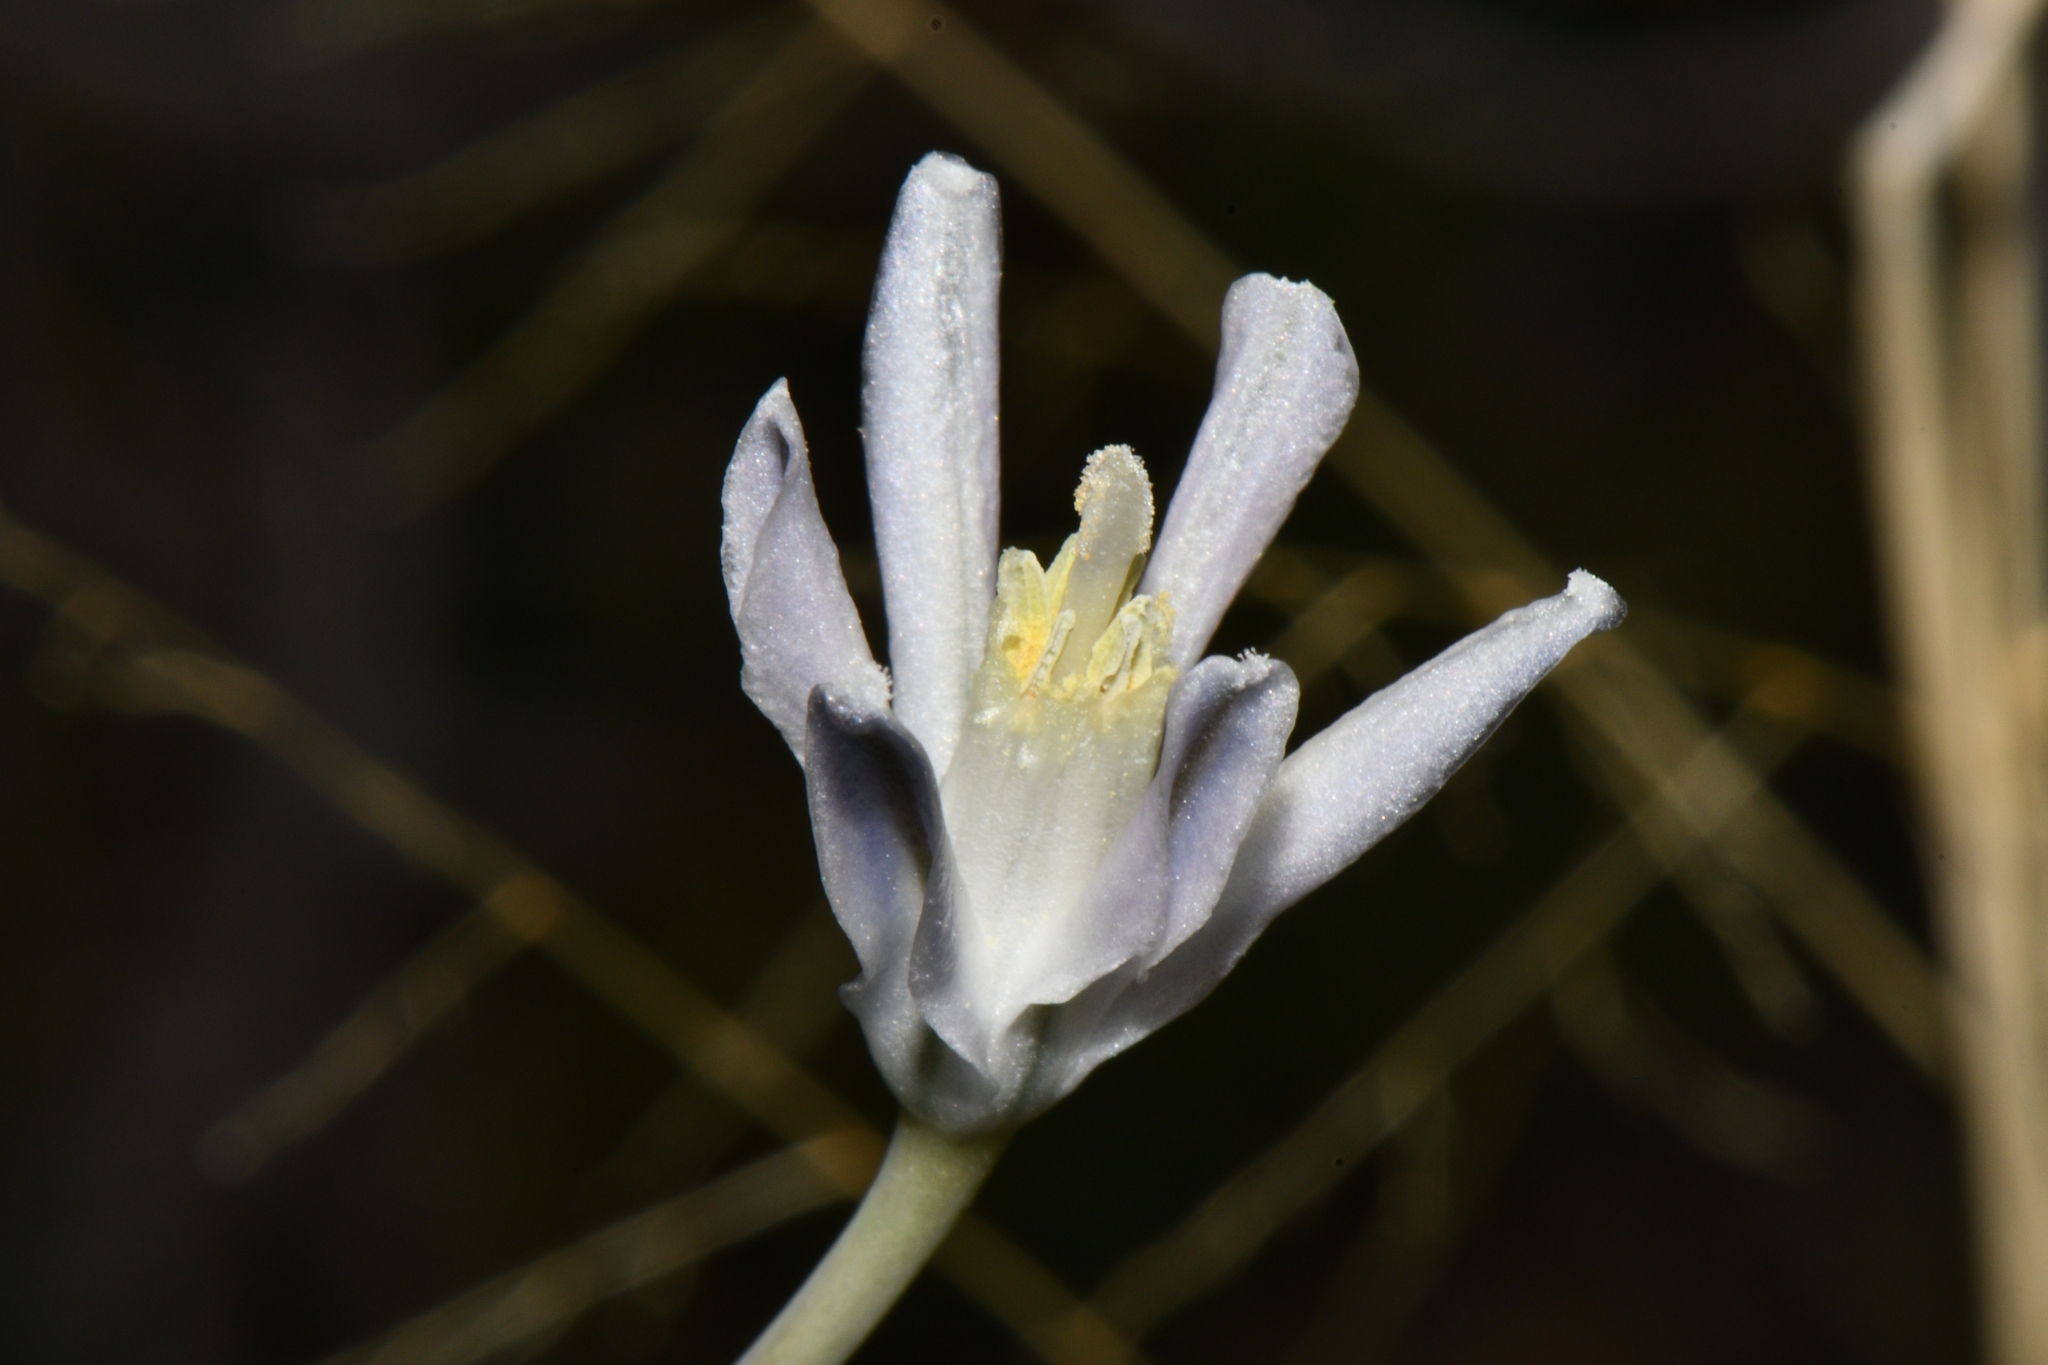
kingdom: Plantae
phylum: Tracheophyta
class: Liliopsida
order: Asparagales
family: Asparagaceae
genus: Androstephium
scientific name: Androstephium breviflorum
